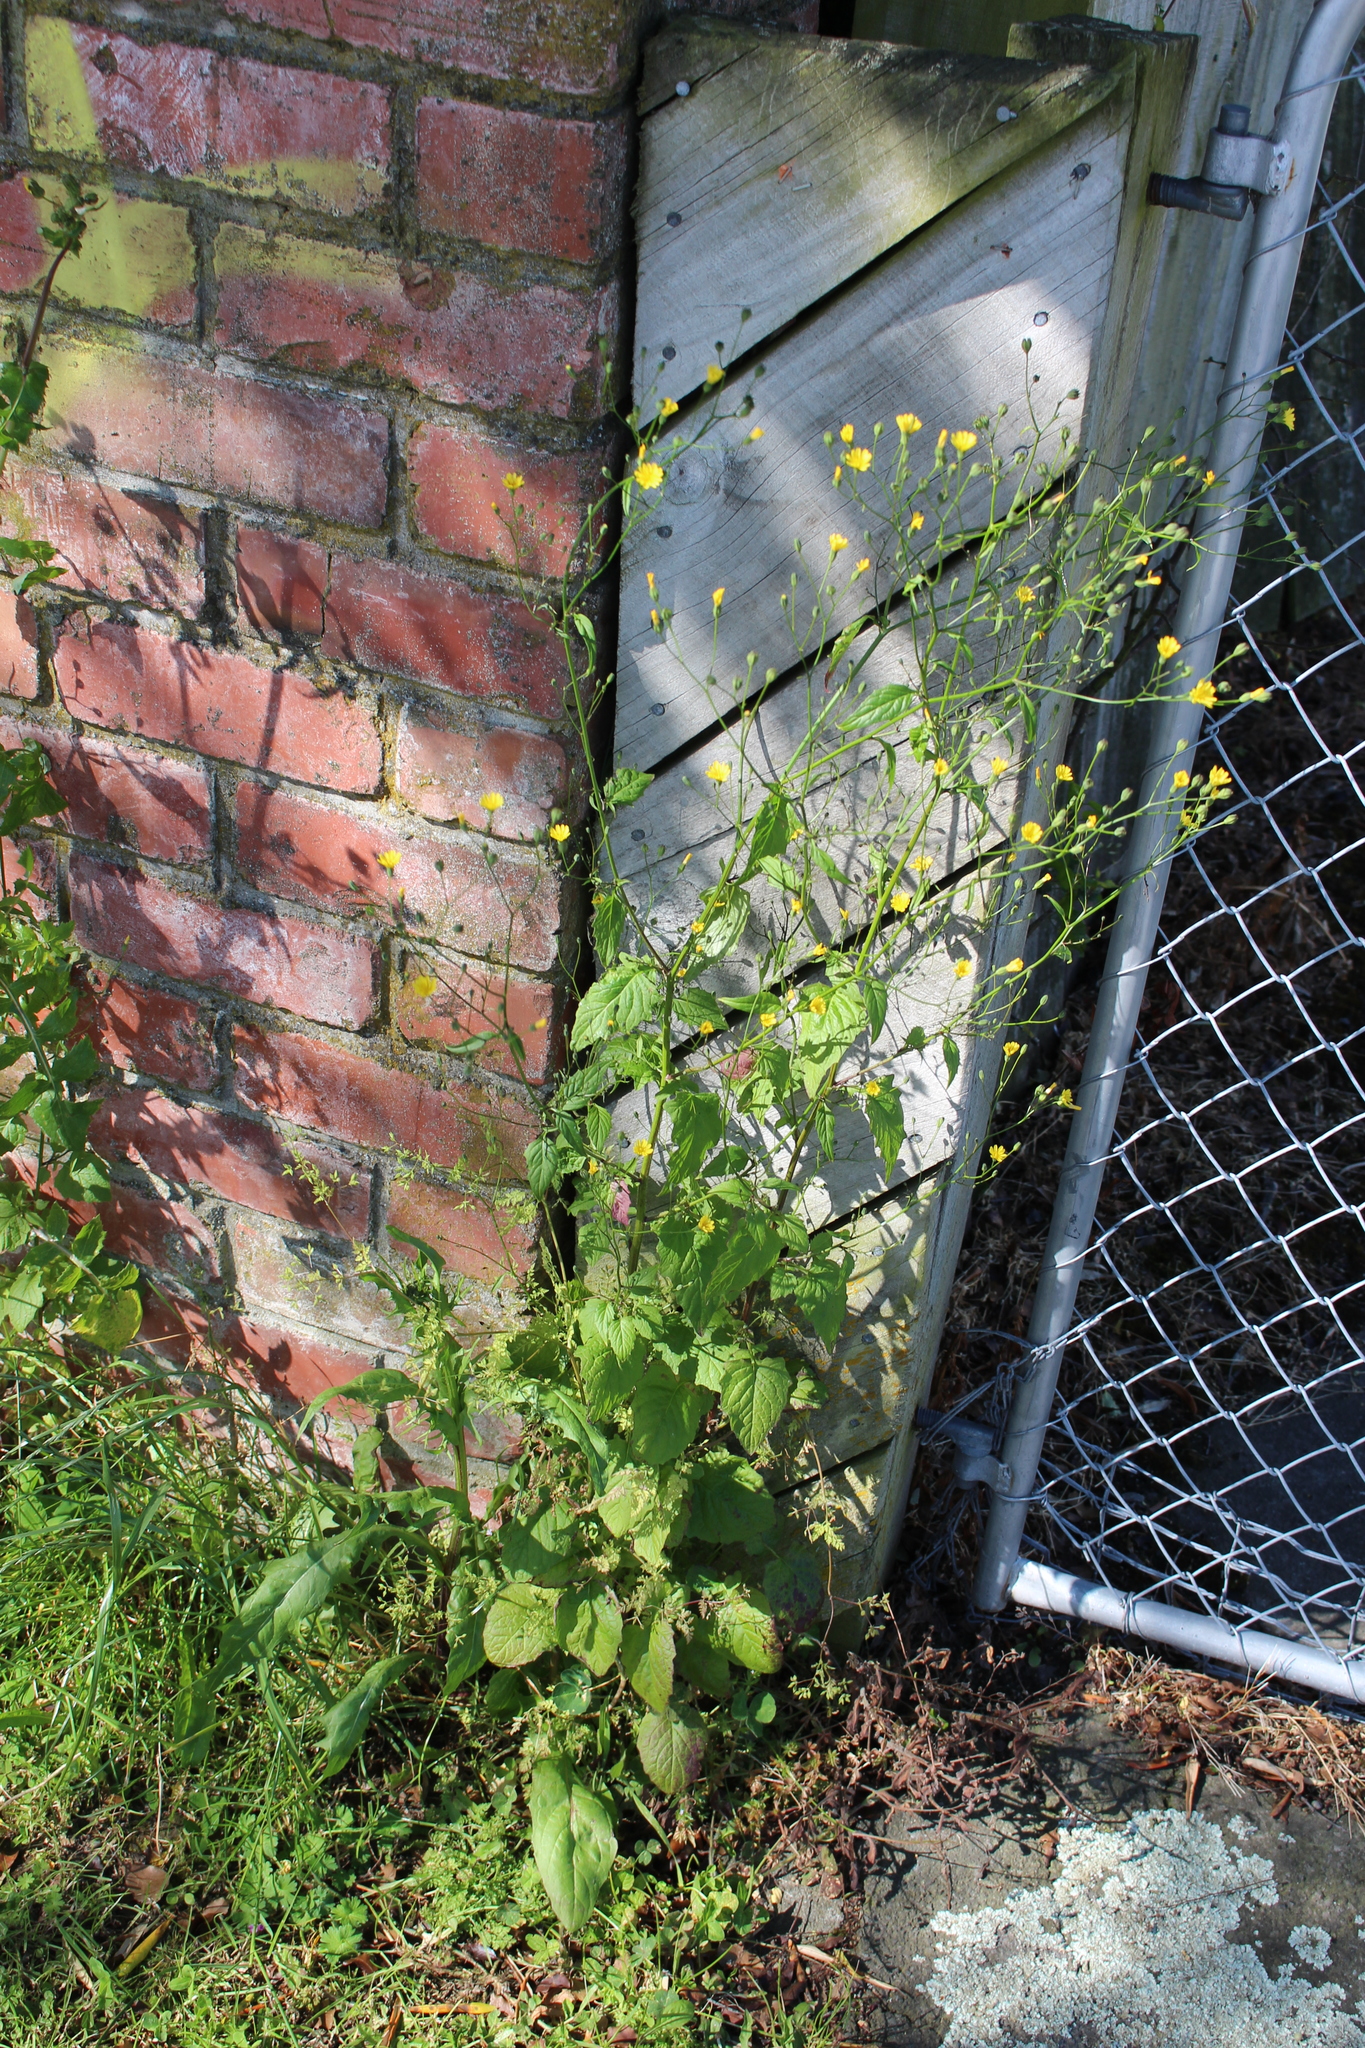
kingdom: Plantae
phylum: Tracheophyta
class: Magnoliopsida
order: Asterales
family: Asteraceae
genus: Lapsana
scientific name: Lapsana communis
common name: Nipplewort
